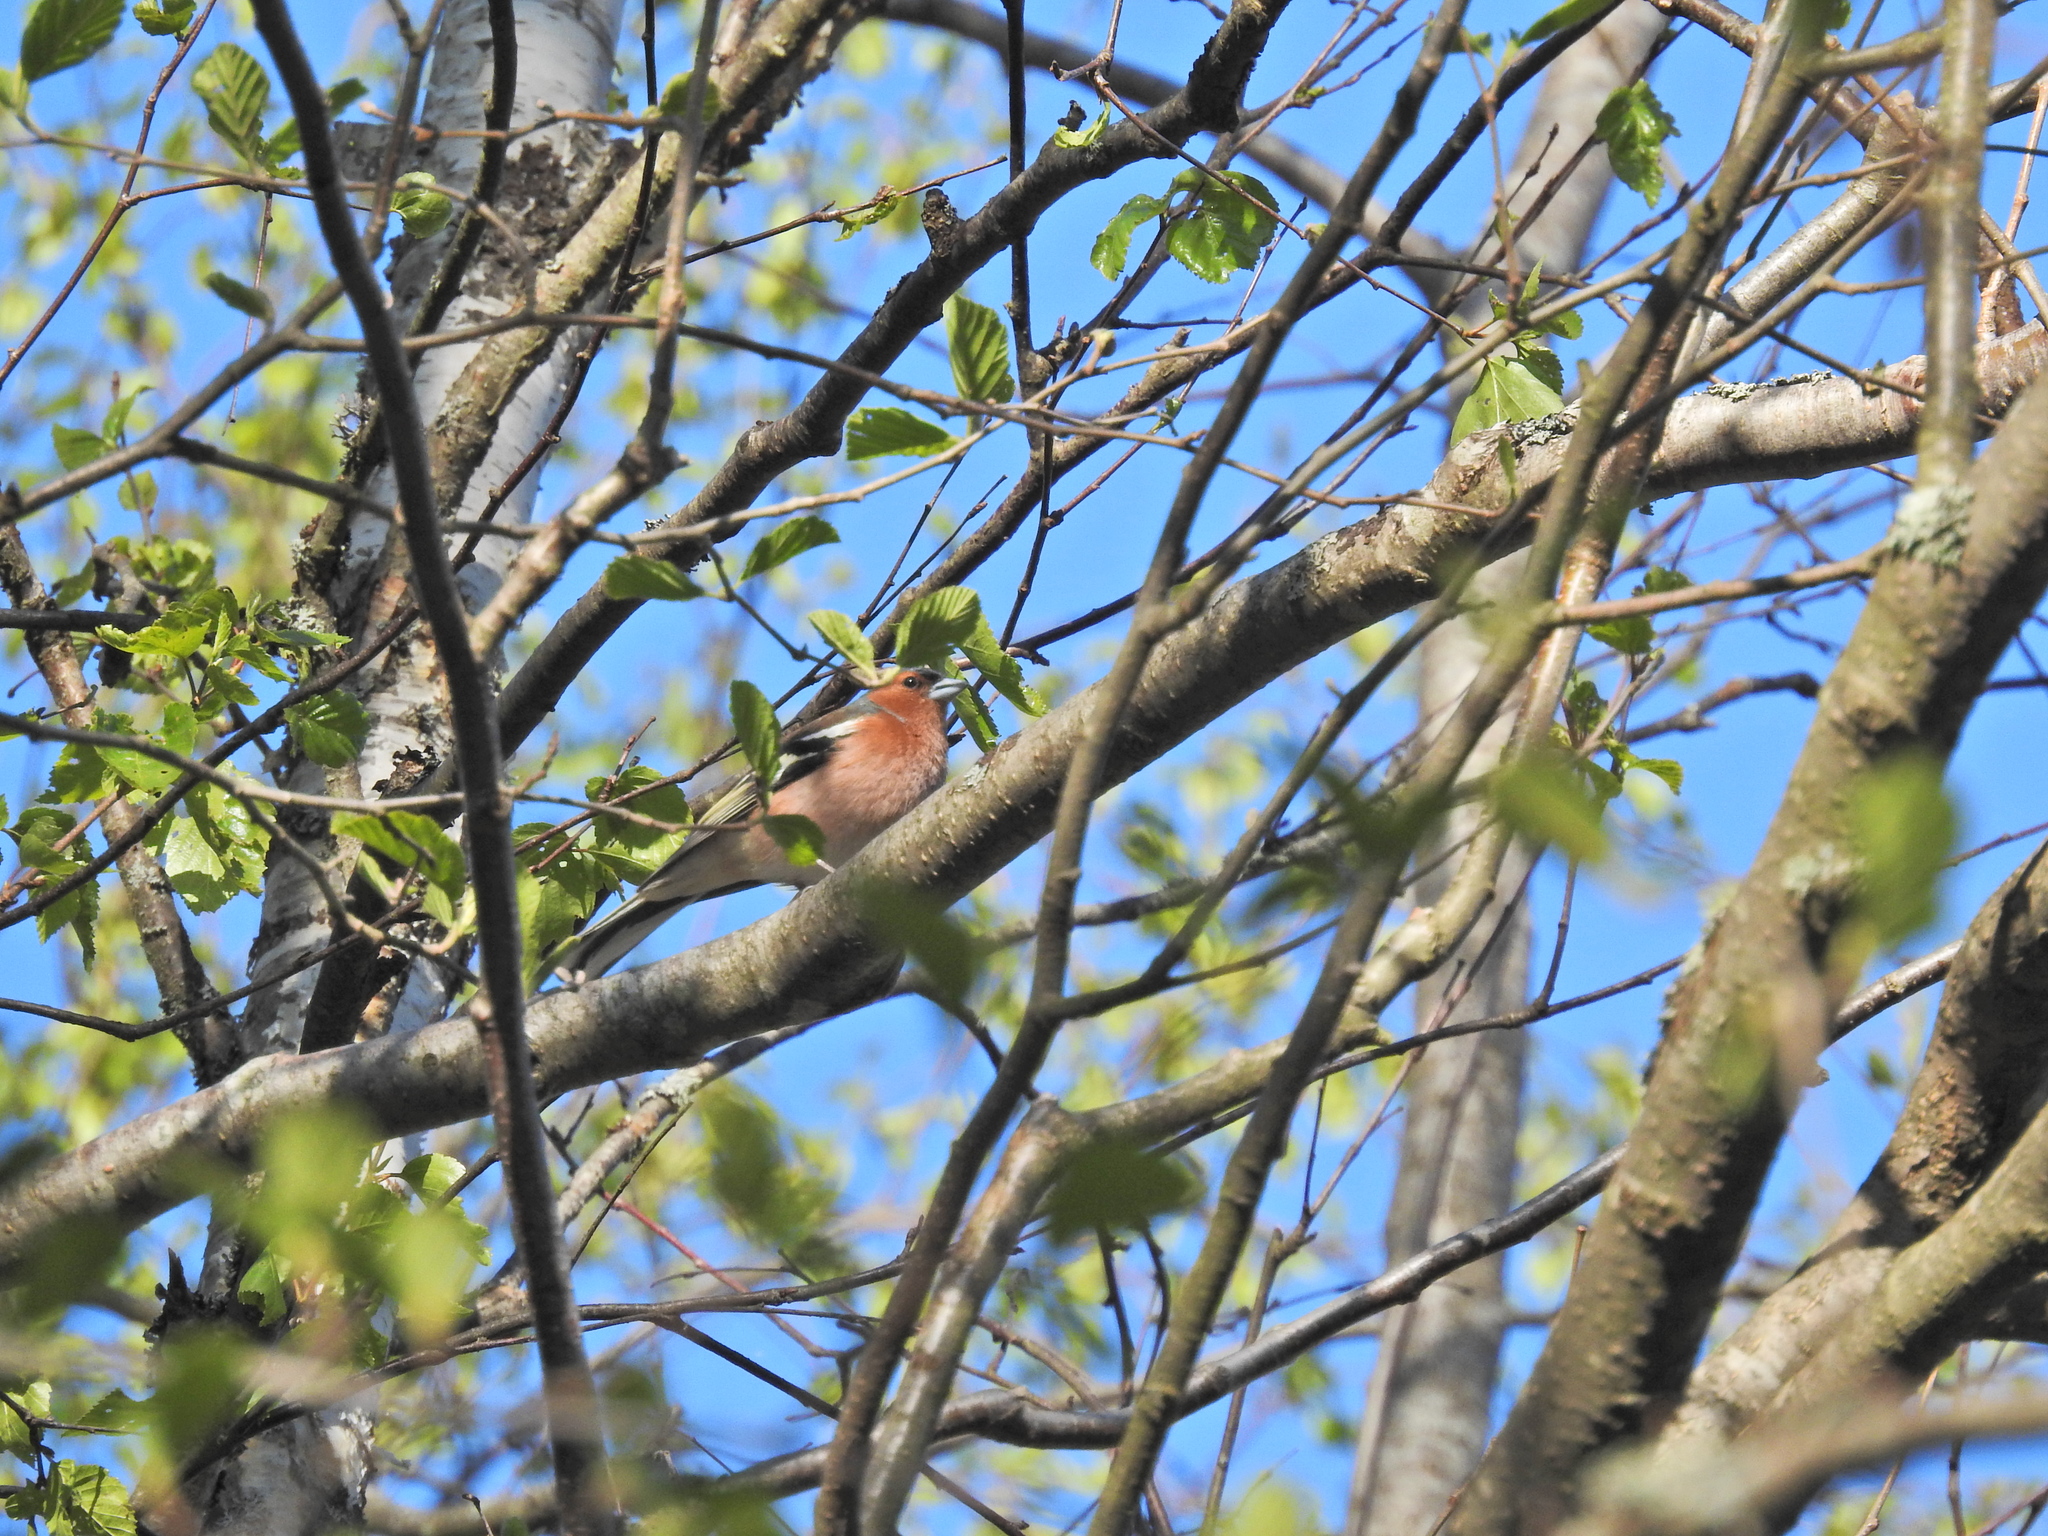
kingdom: Animalia
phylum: Chordata
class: Aves
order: Passeriformes
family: Fringillidae
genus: Fringilla
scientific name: Fringilla coelebs
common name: Common chaffinch
